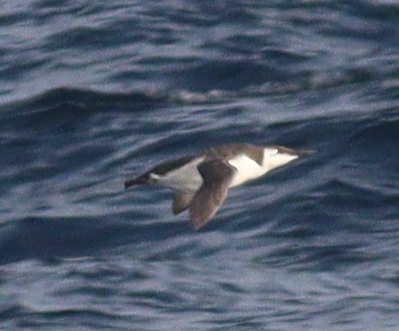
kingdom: Animalia
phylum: Chordata
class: Aves
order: Charadriiformes
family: Alcidae
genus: Uria
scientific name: Uria aalge
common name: Common murre
